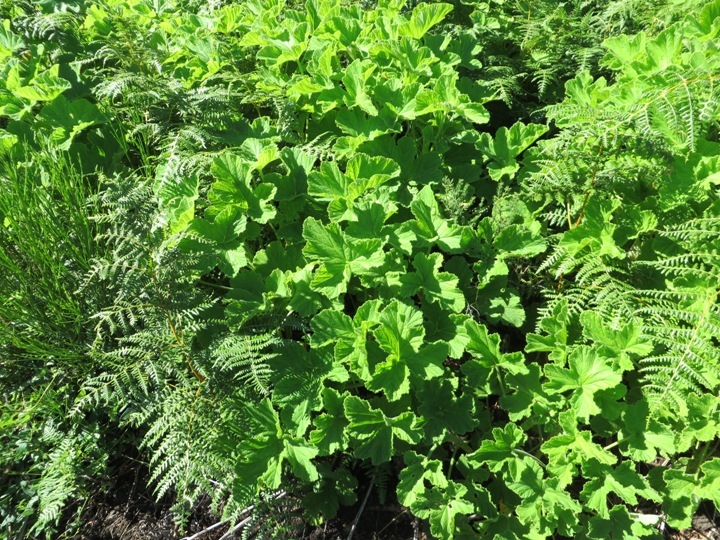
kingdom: Plantae
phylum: Tracheophyta
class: Magnoliopsida
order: Geraniales
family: Geraniaceae
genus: Pelargonium
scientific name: Pelargonium vitifolium
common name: Grapeleaf geranium
